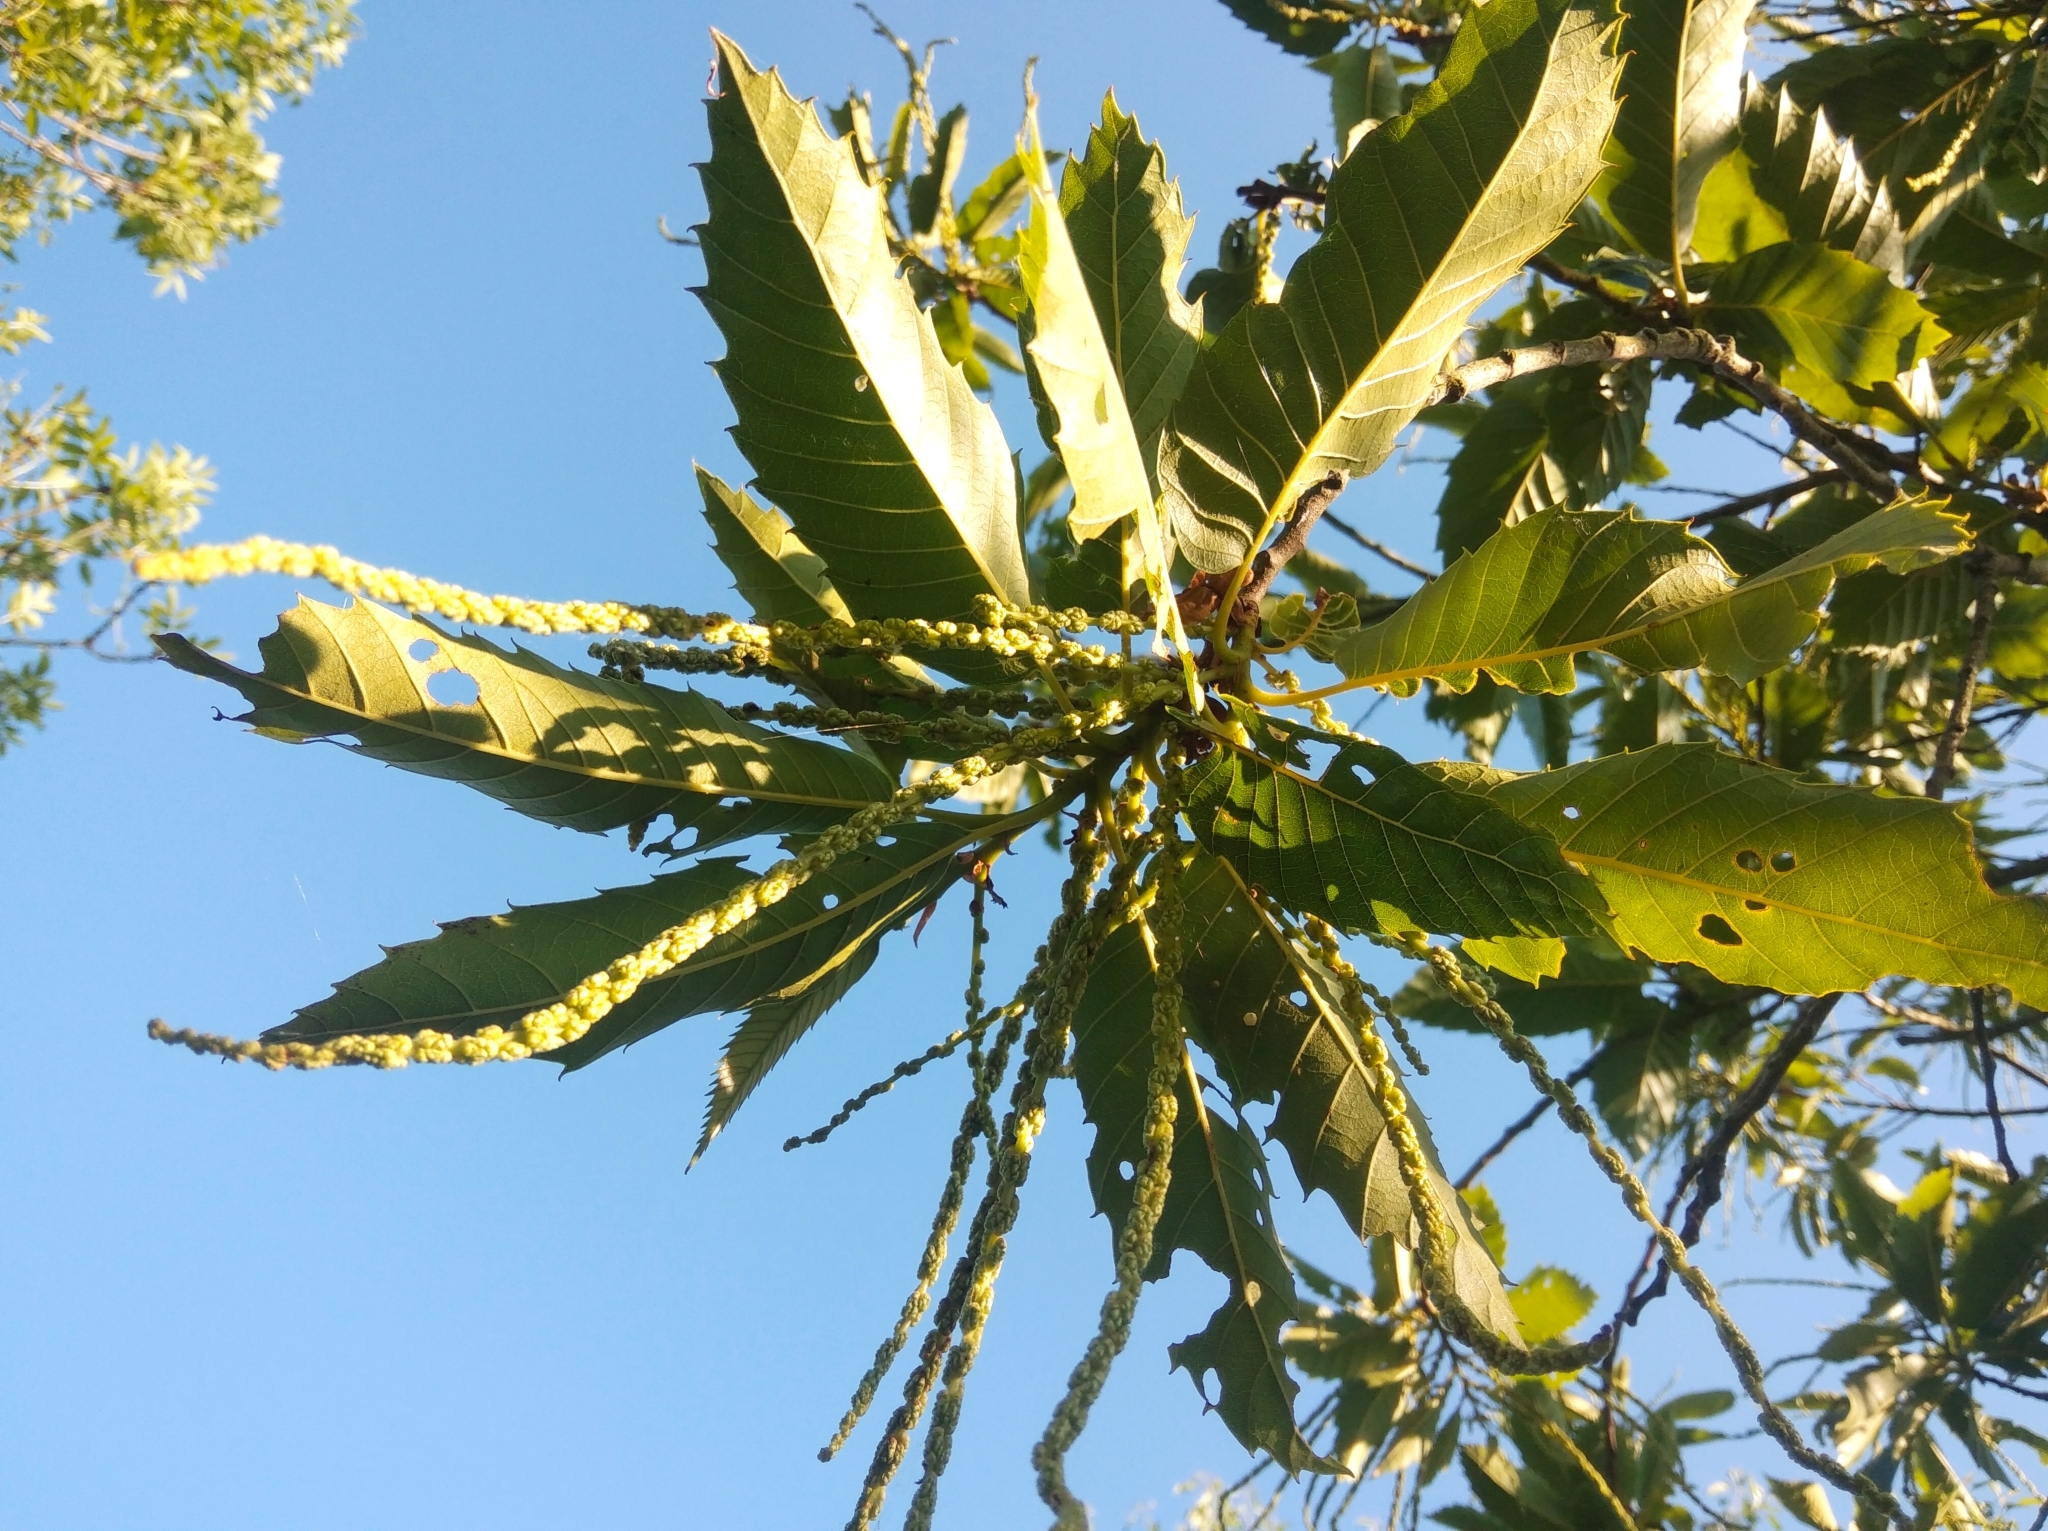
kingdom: Plantae
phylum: Tracheophyta
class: Magnoliopsida
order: Fagales
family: Fagaceae
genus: Castanea
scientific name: Castanea sativa
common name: Sweet chestnut
